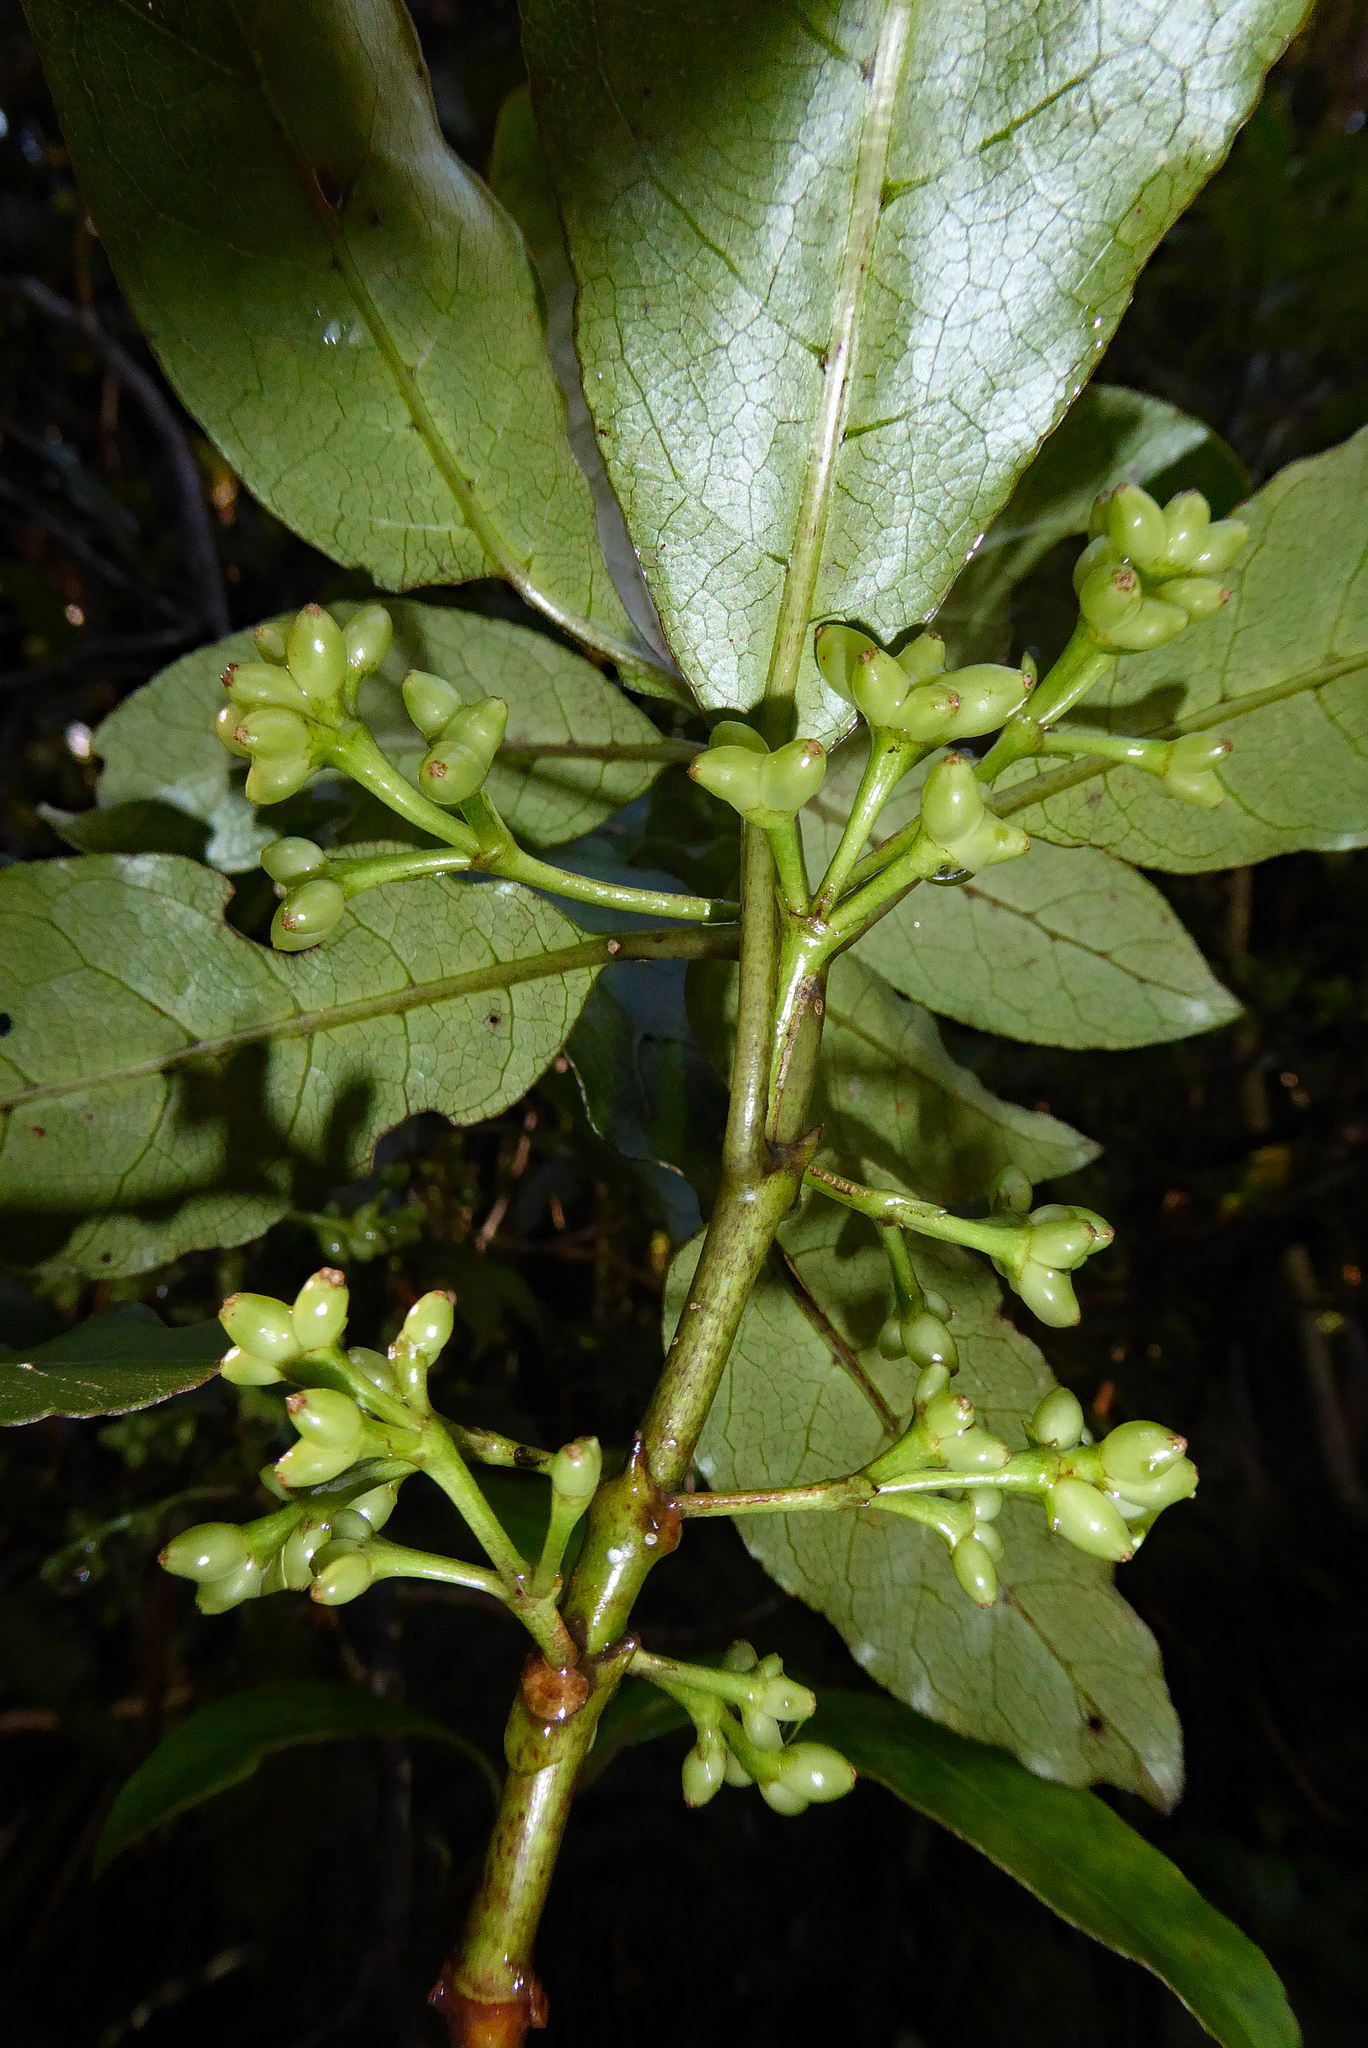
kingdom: Plantae
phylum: Tracheophyta
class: Magnoliopsida
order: Gentianales
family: Rubiaceae
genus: Coprosma
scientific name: Coprosma autumnalis
